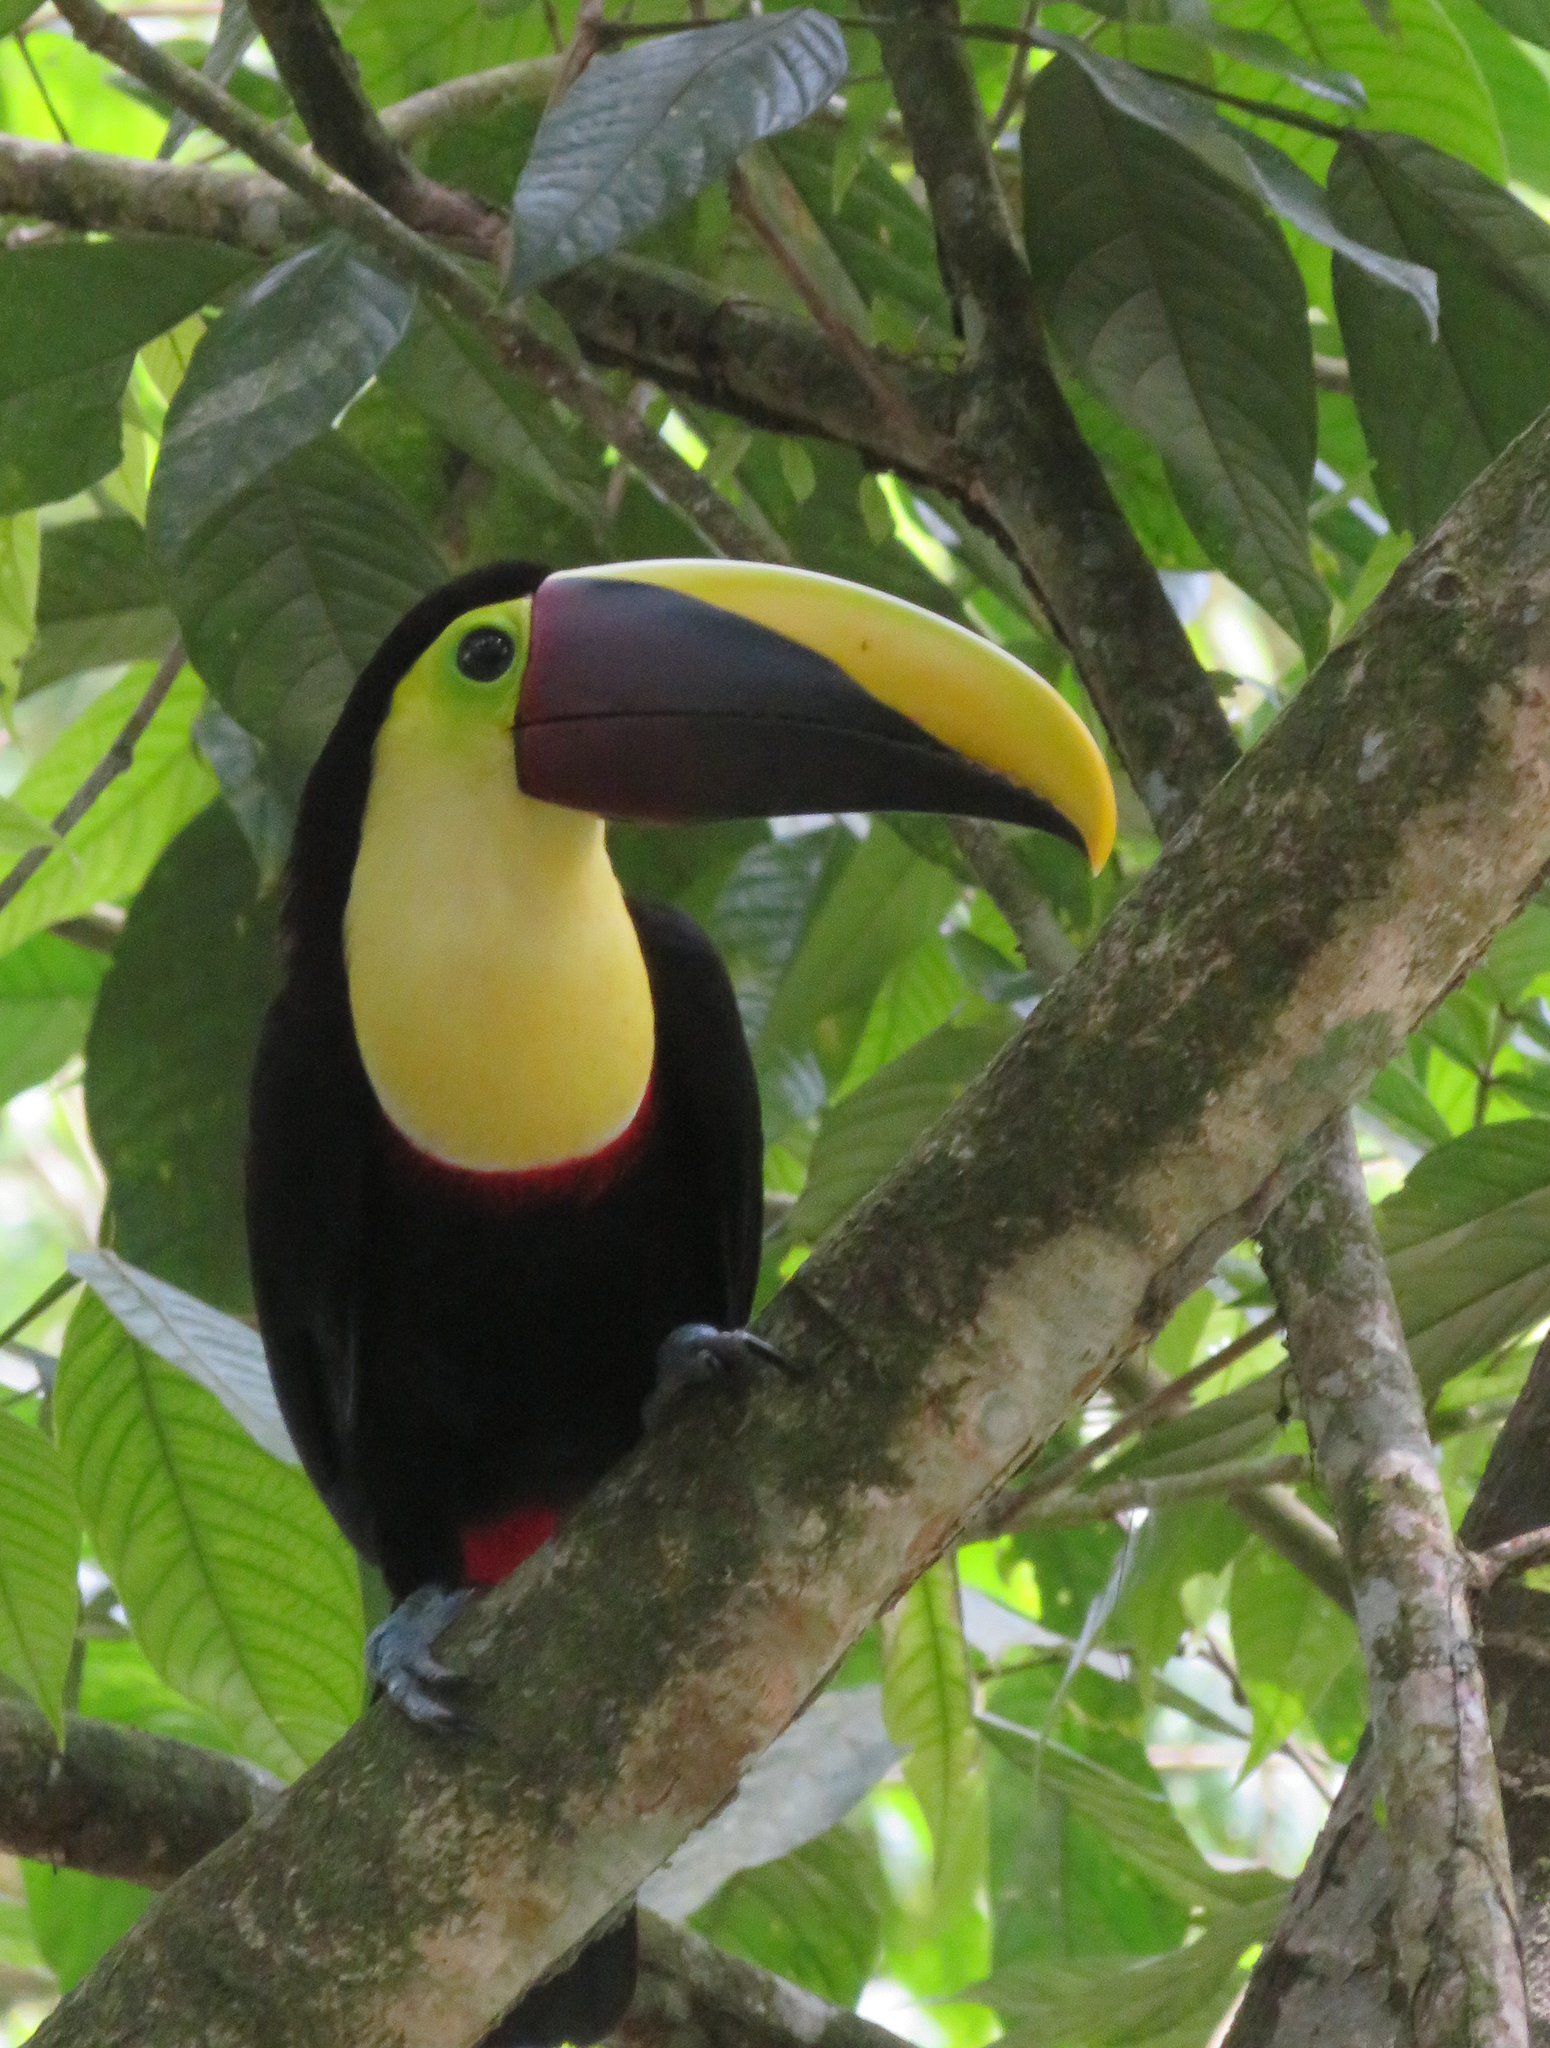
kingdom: Animalia
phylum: Chordata
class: Aves
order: Piciformes
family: Ramphastidae
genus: Ramphastos
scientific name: Ramphastos ambiguus
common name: Yellow-throated toucan
